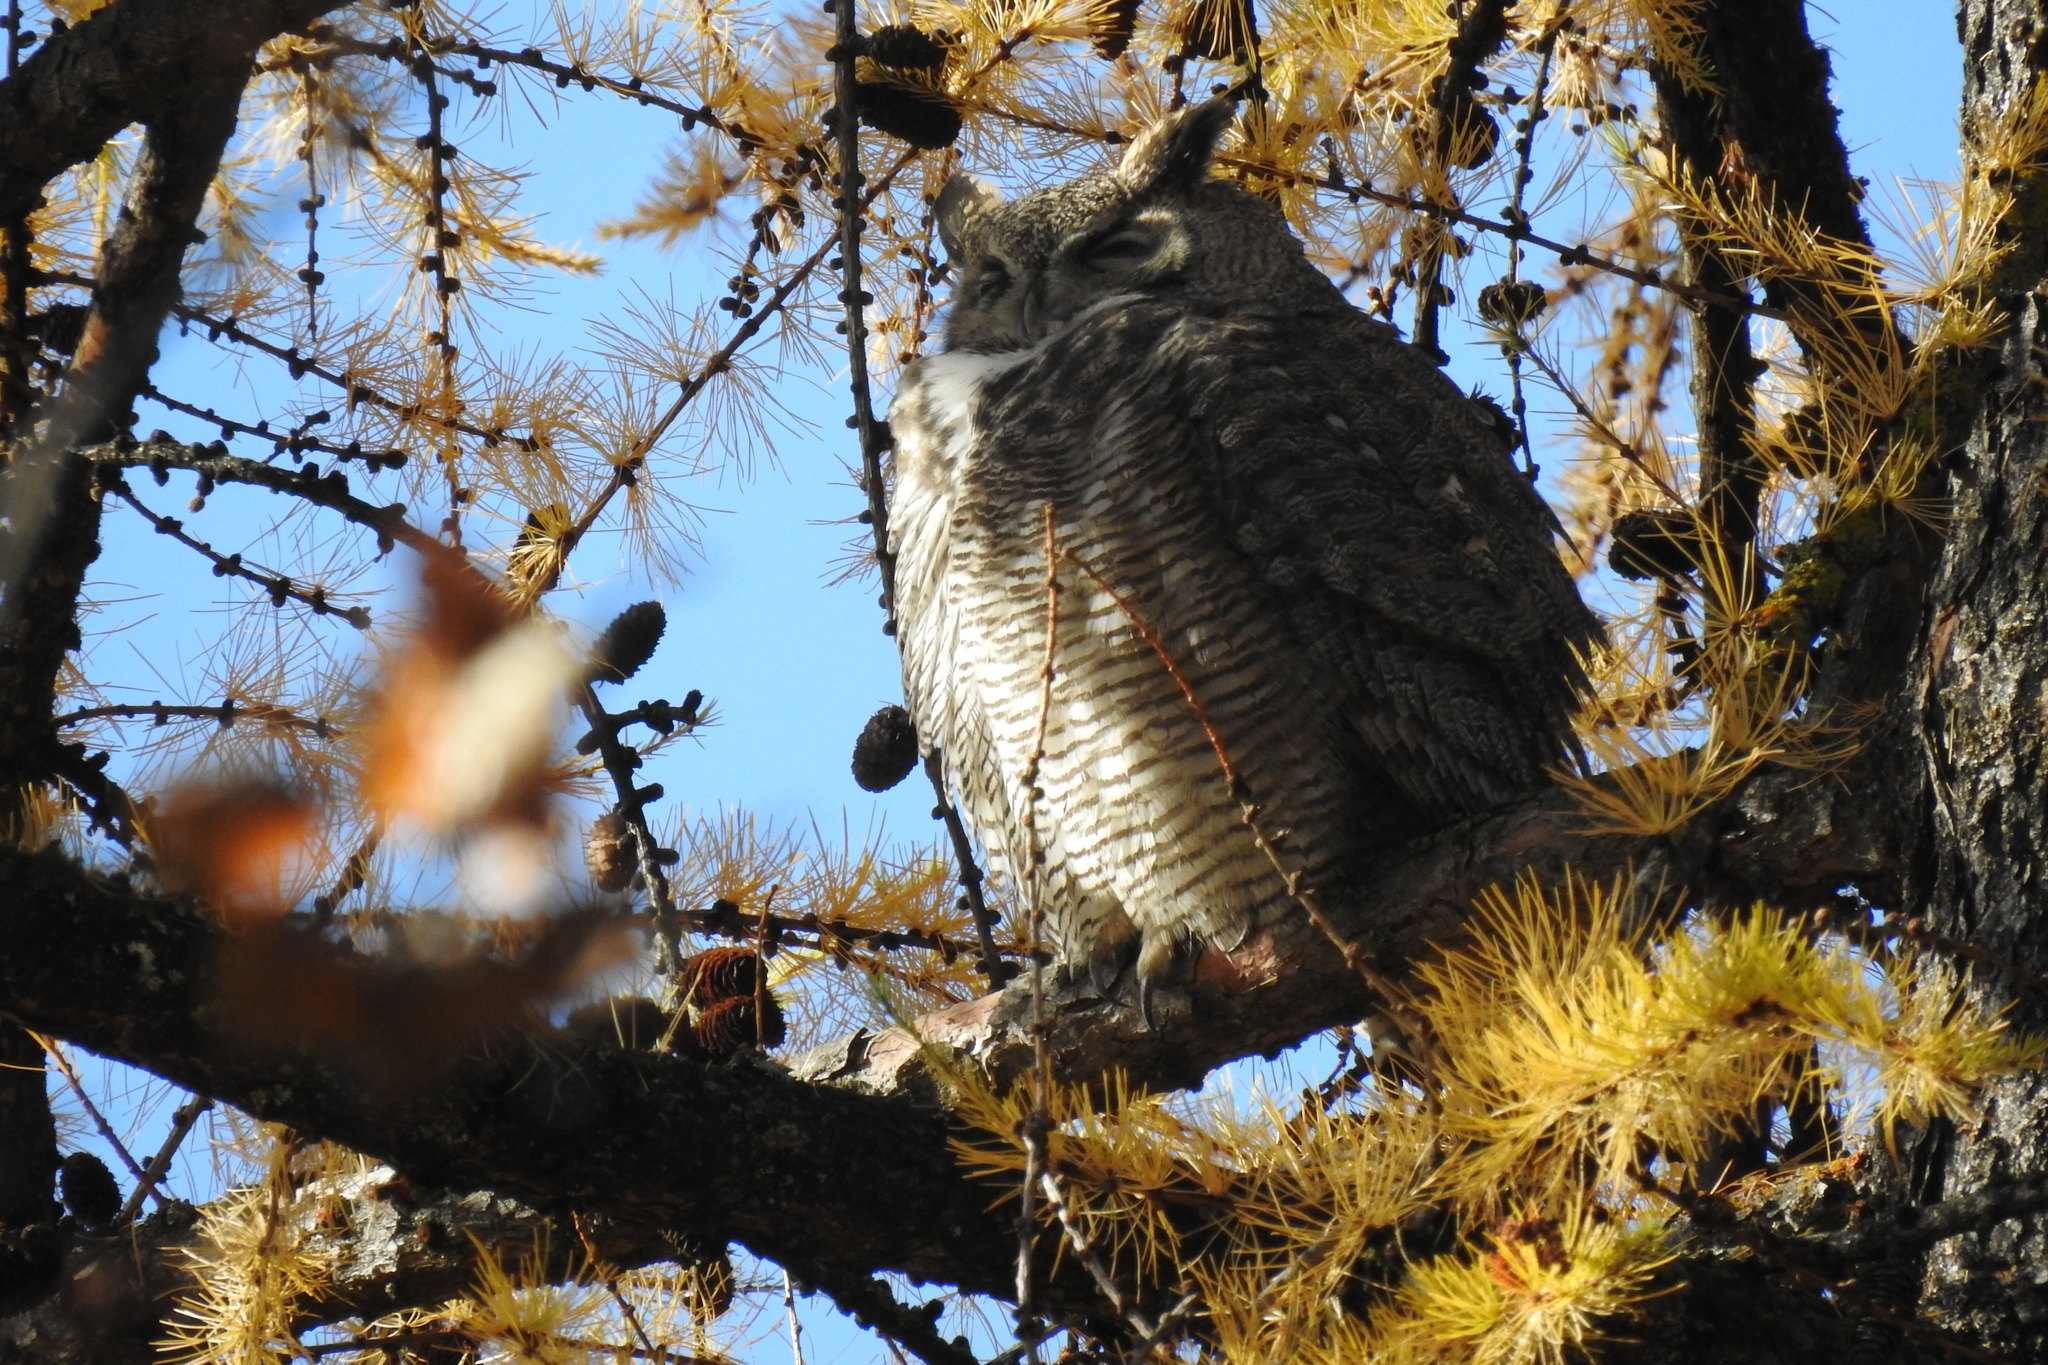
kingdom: Animalia
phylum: Chordata
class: Aves
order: Strigiformes
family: Strigidae
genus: Bubo
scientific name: Bubo virginianus
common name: Great horned owl
